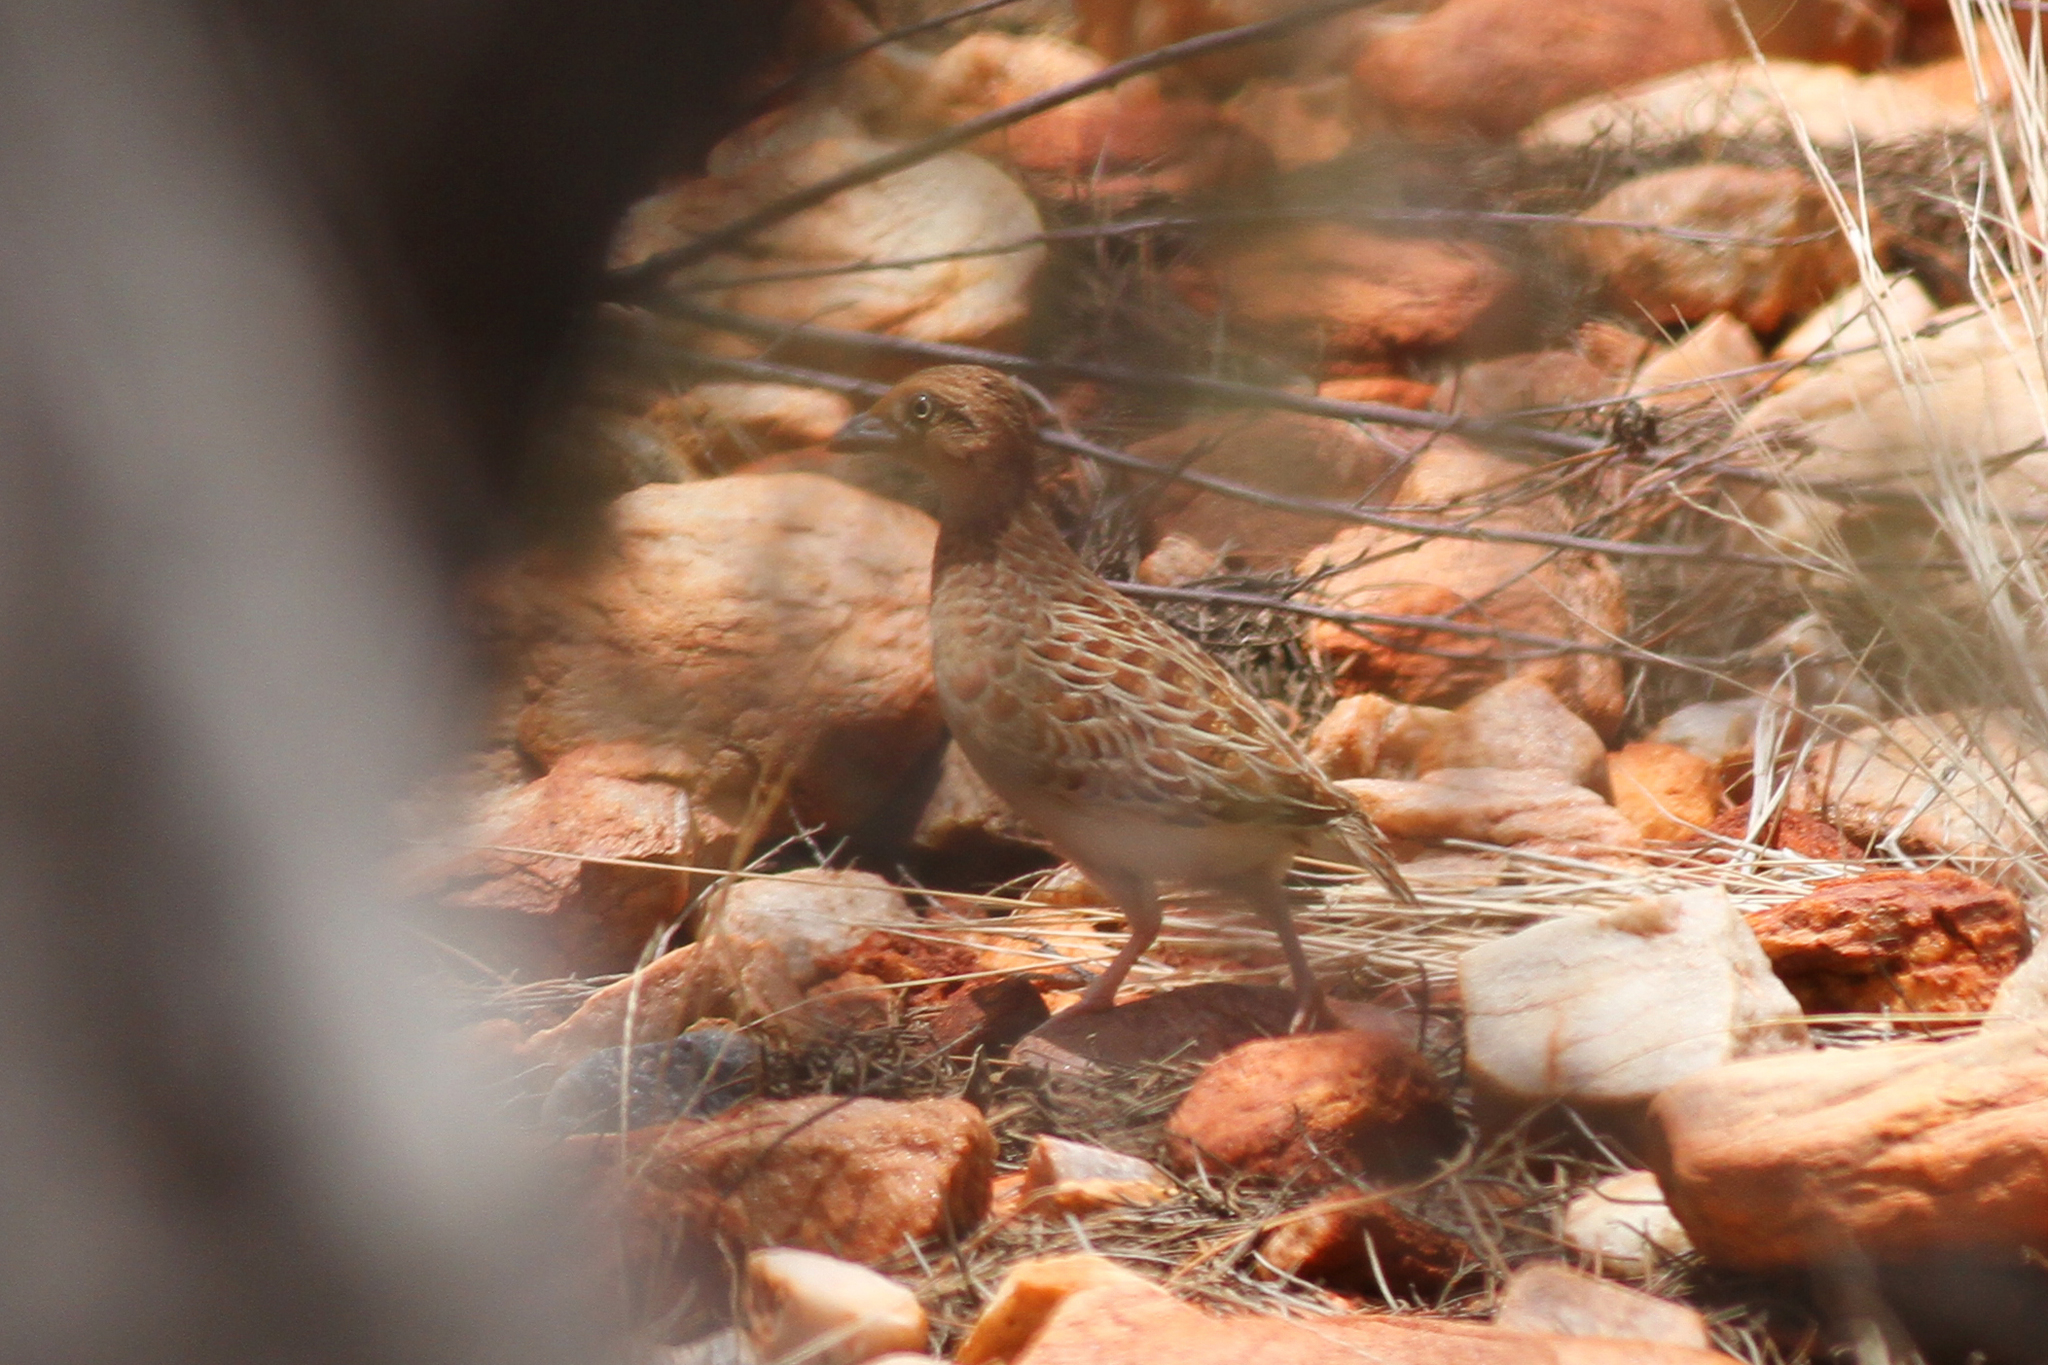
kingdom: Animalia
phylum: Chordata
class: Aves
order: Charadriiformes
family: Turnicidae
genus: Turnix
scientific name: Turnix velox
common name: Little buttonquail
